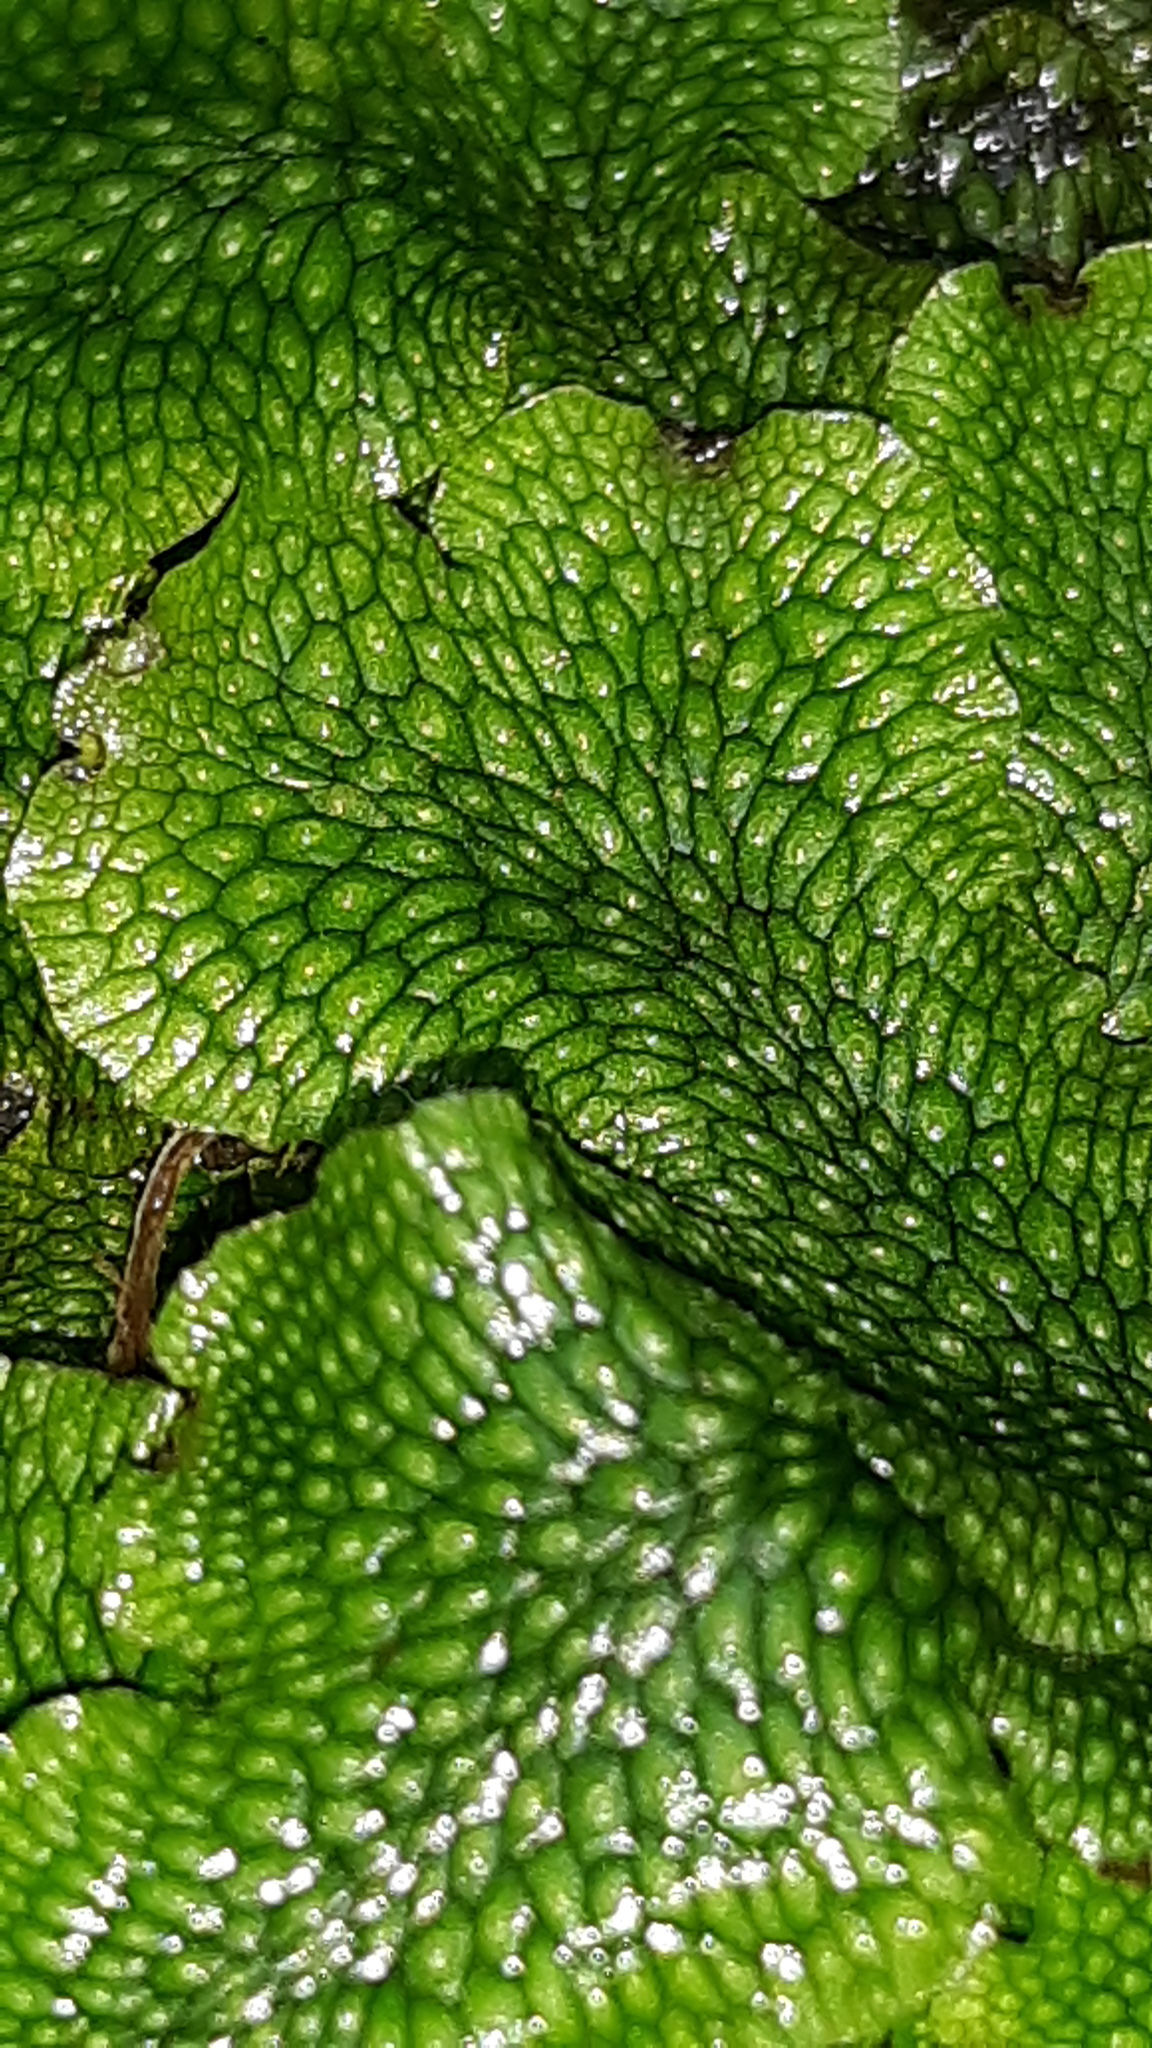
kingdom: Plantae
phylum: Marchantiophyta
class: Marchantiopsida
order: Marchantiales
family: Conocephalaceae
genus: Conocephalum
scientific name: Conocephalum salebrosum
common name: Cat-tongue liverwort
